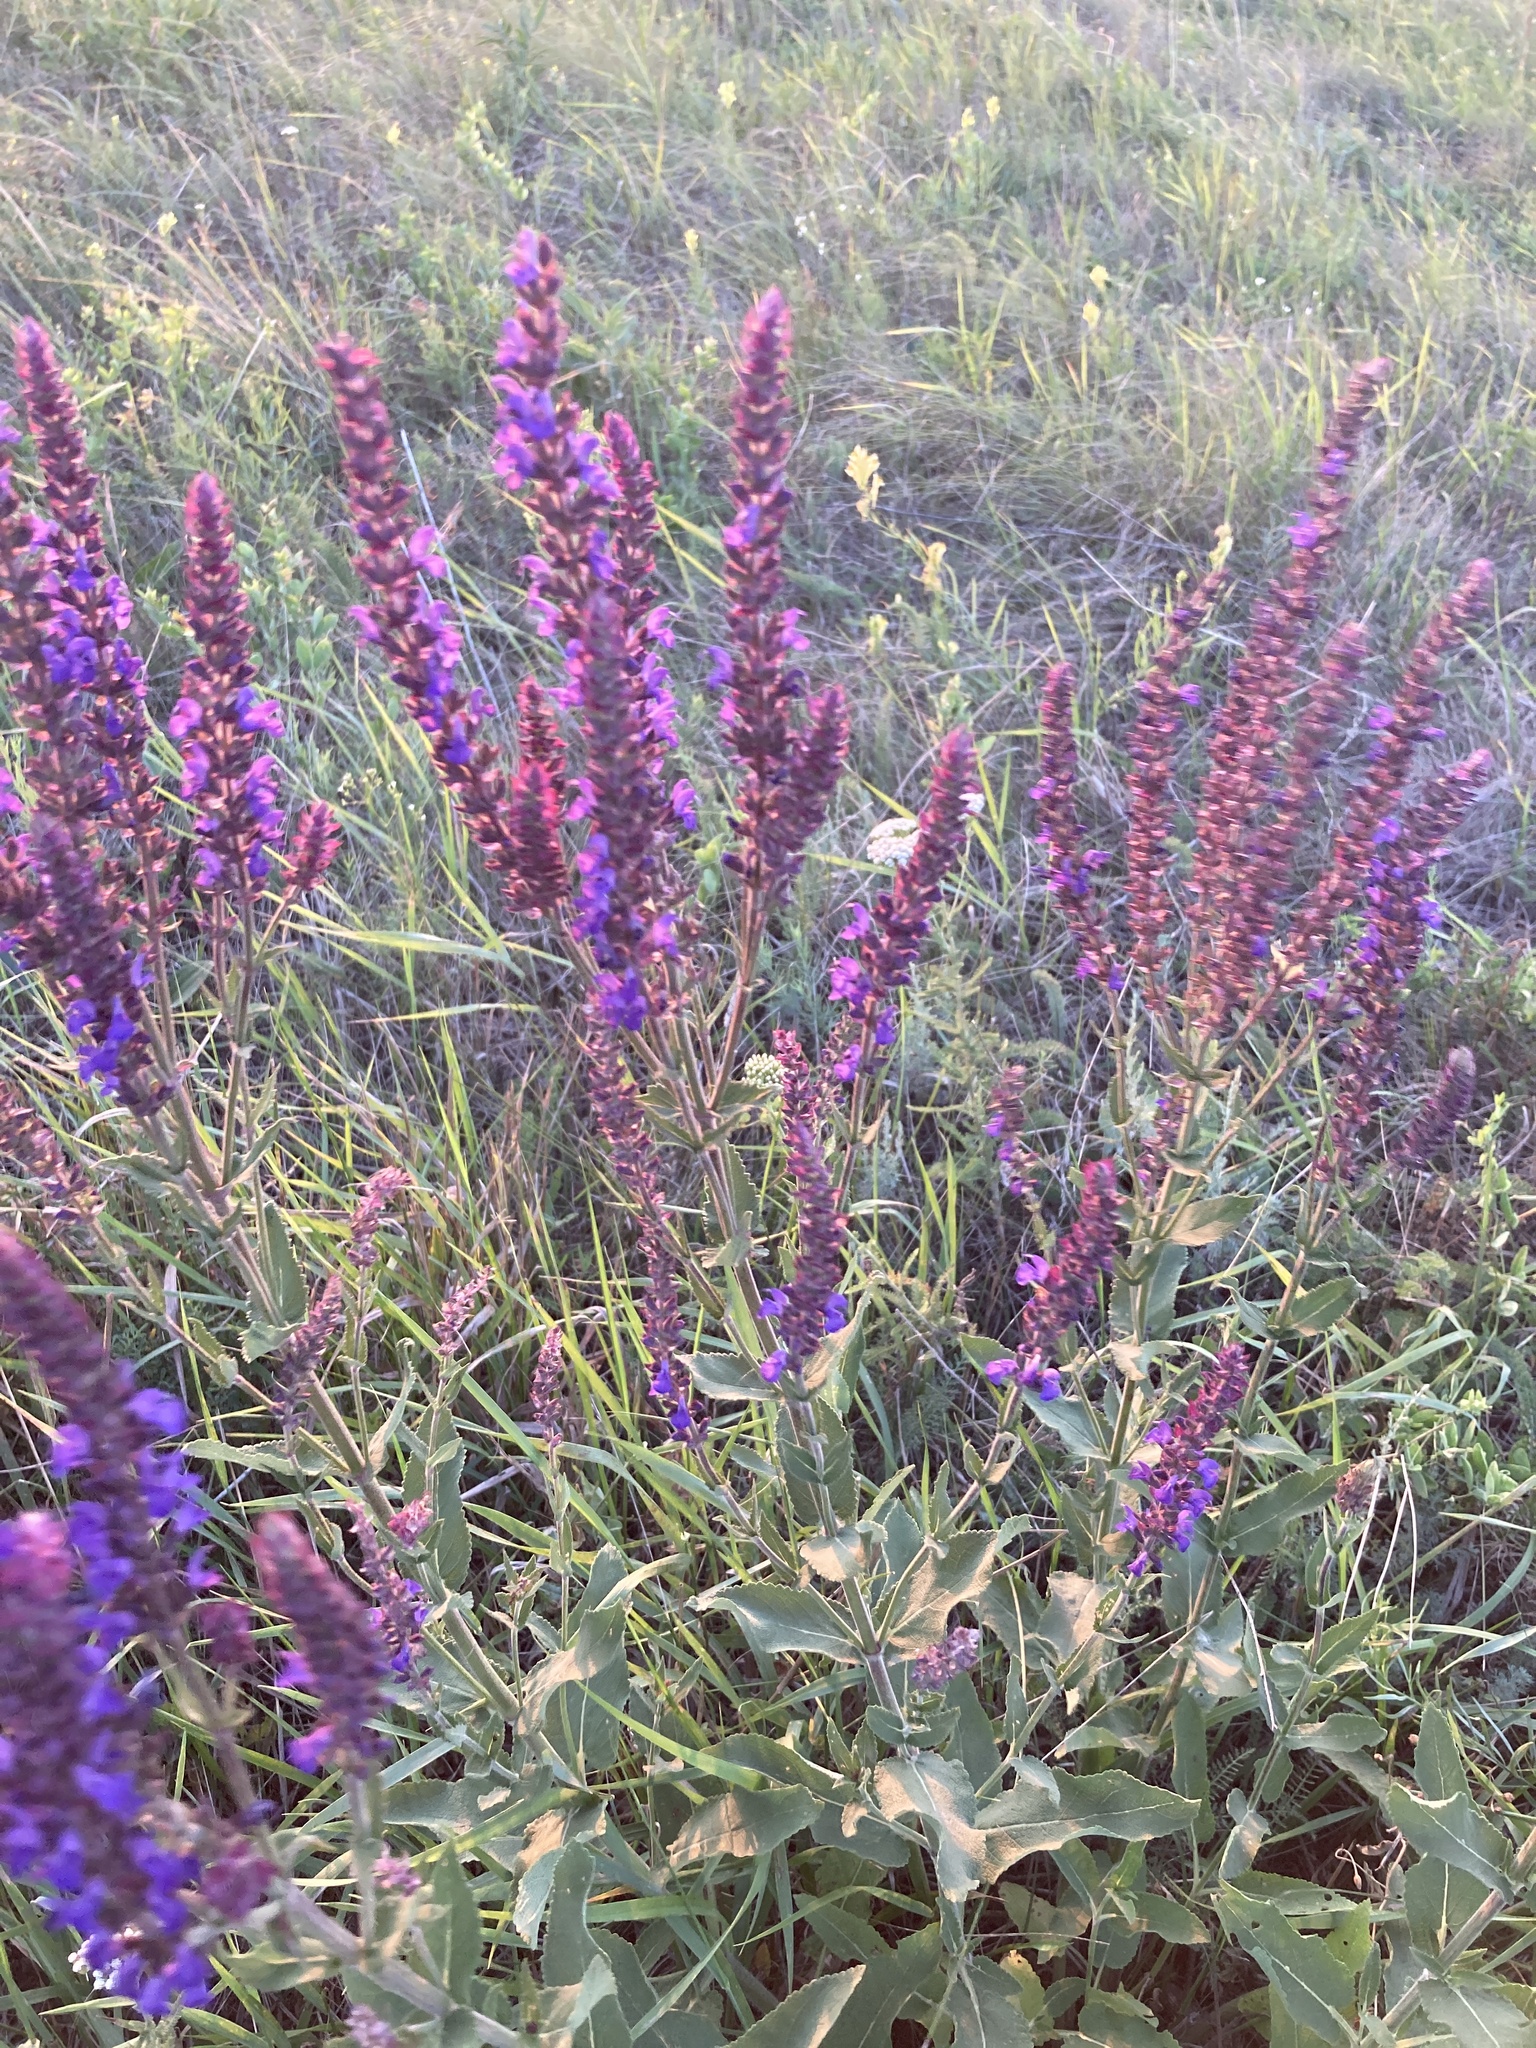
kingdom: Plantae
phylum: Tracheophyta
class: Magnoliopsida
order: Lamiales
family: Lamiaceae
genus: Salvia
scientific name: Salvia nemorosa
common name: Balkan clary
